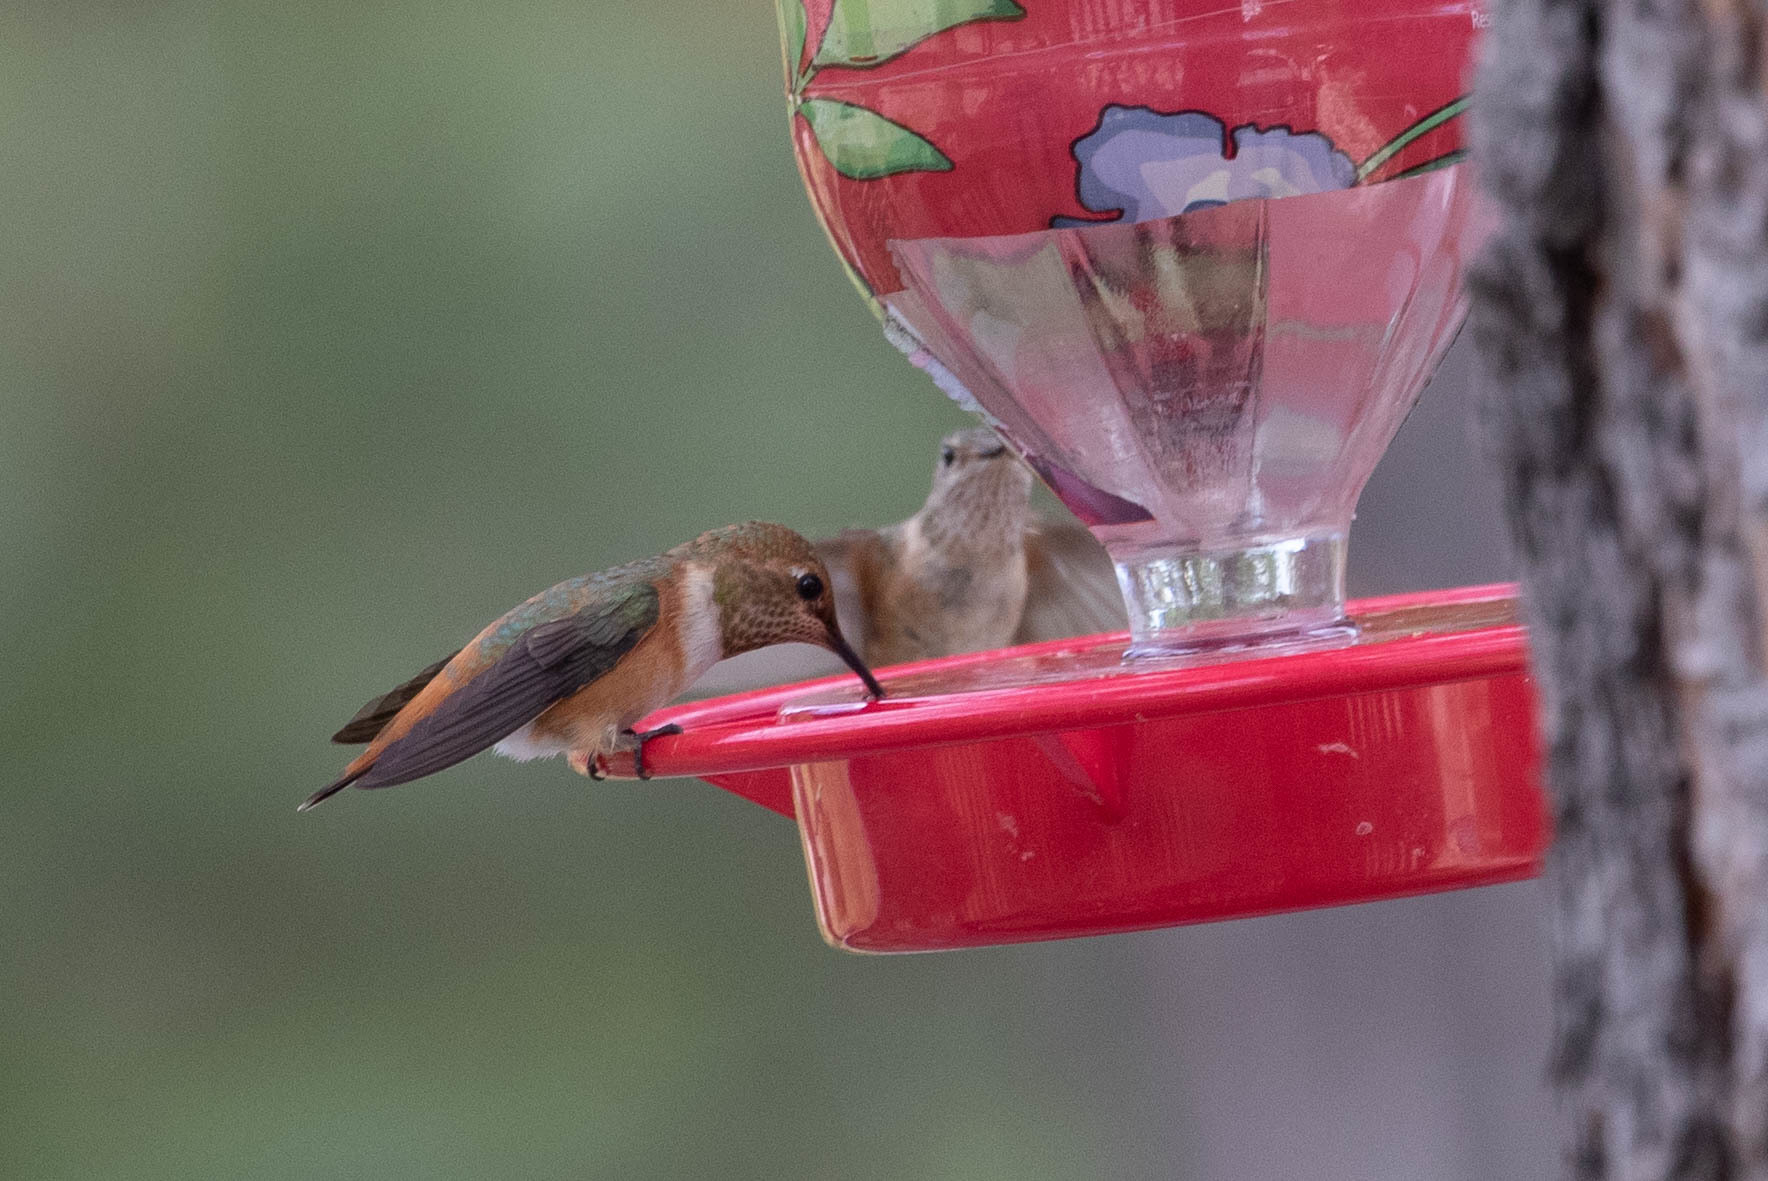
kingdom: Animalia
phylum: Chordata
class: Aves
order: Apodiformes
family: Trochilidae
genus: Selasphorus
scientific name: Selasphorus rufus
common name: Rufous hummingbird
